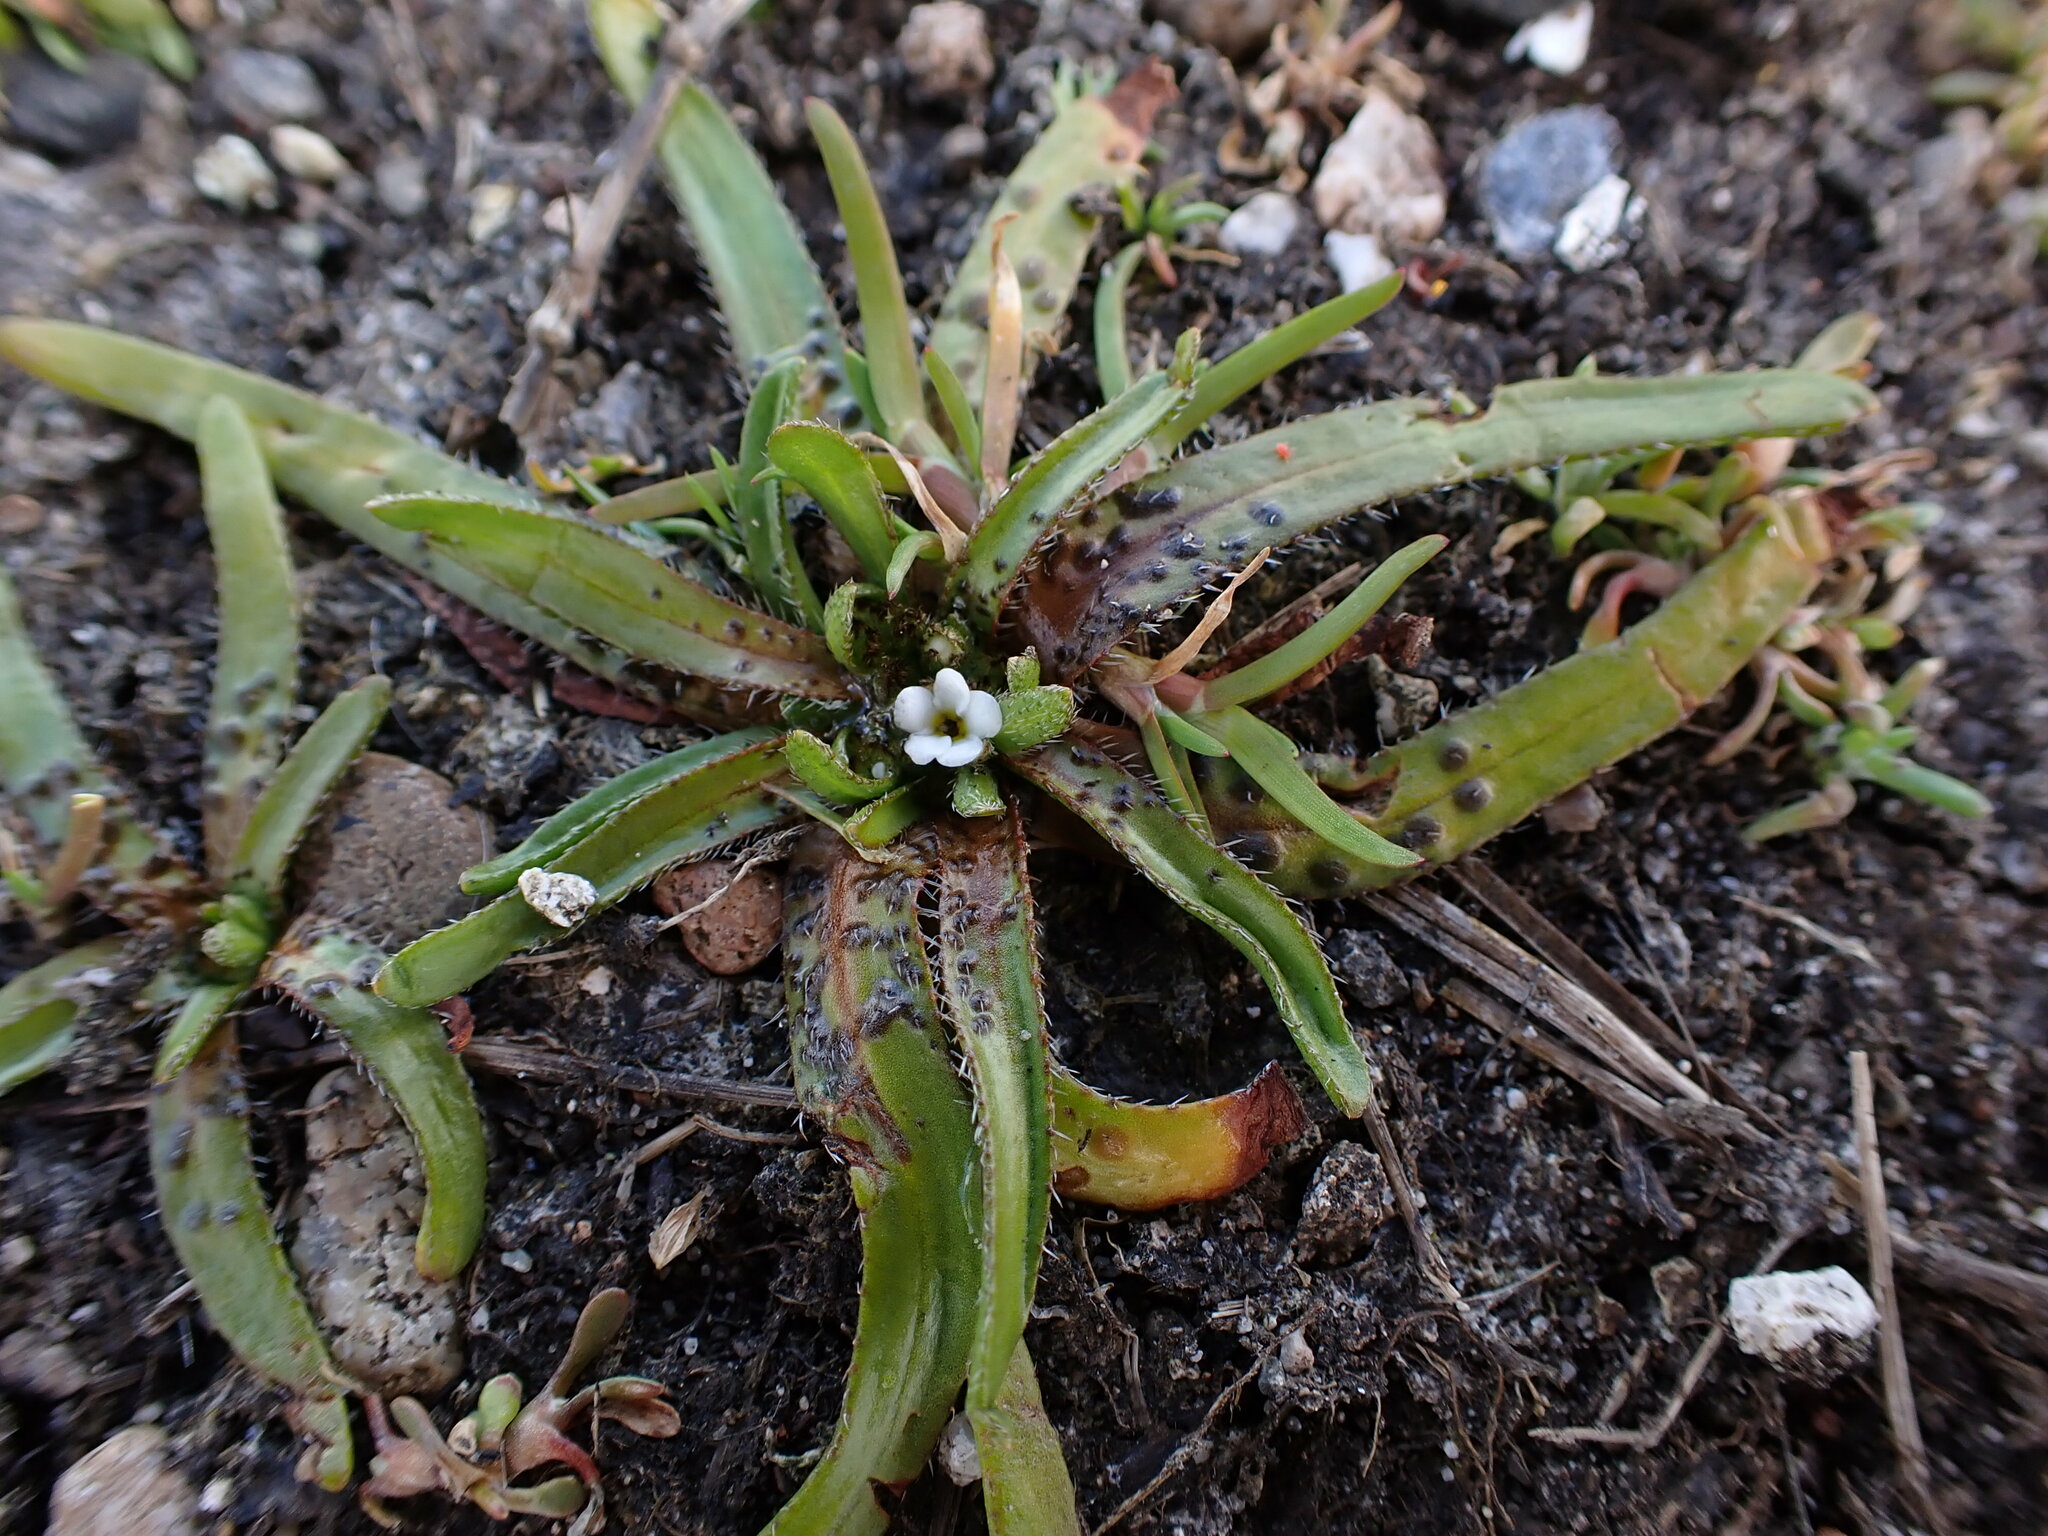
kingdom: Plantae
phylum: Tracheophyta
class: Magnoliopsida
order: Boraginales
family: Boraginaceae
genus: Plagiobothrys
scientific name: Plagiobothrys scouleri
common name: White forget-me-not
